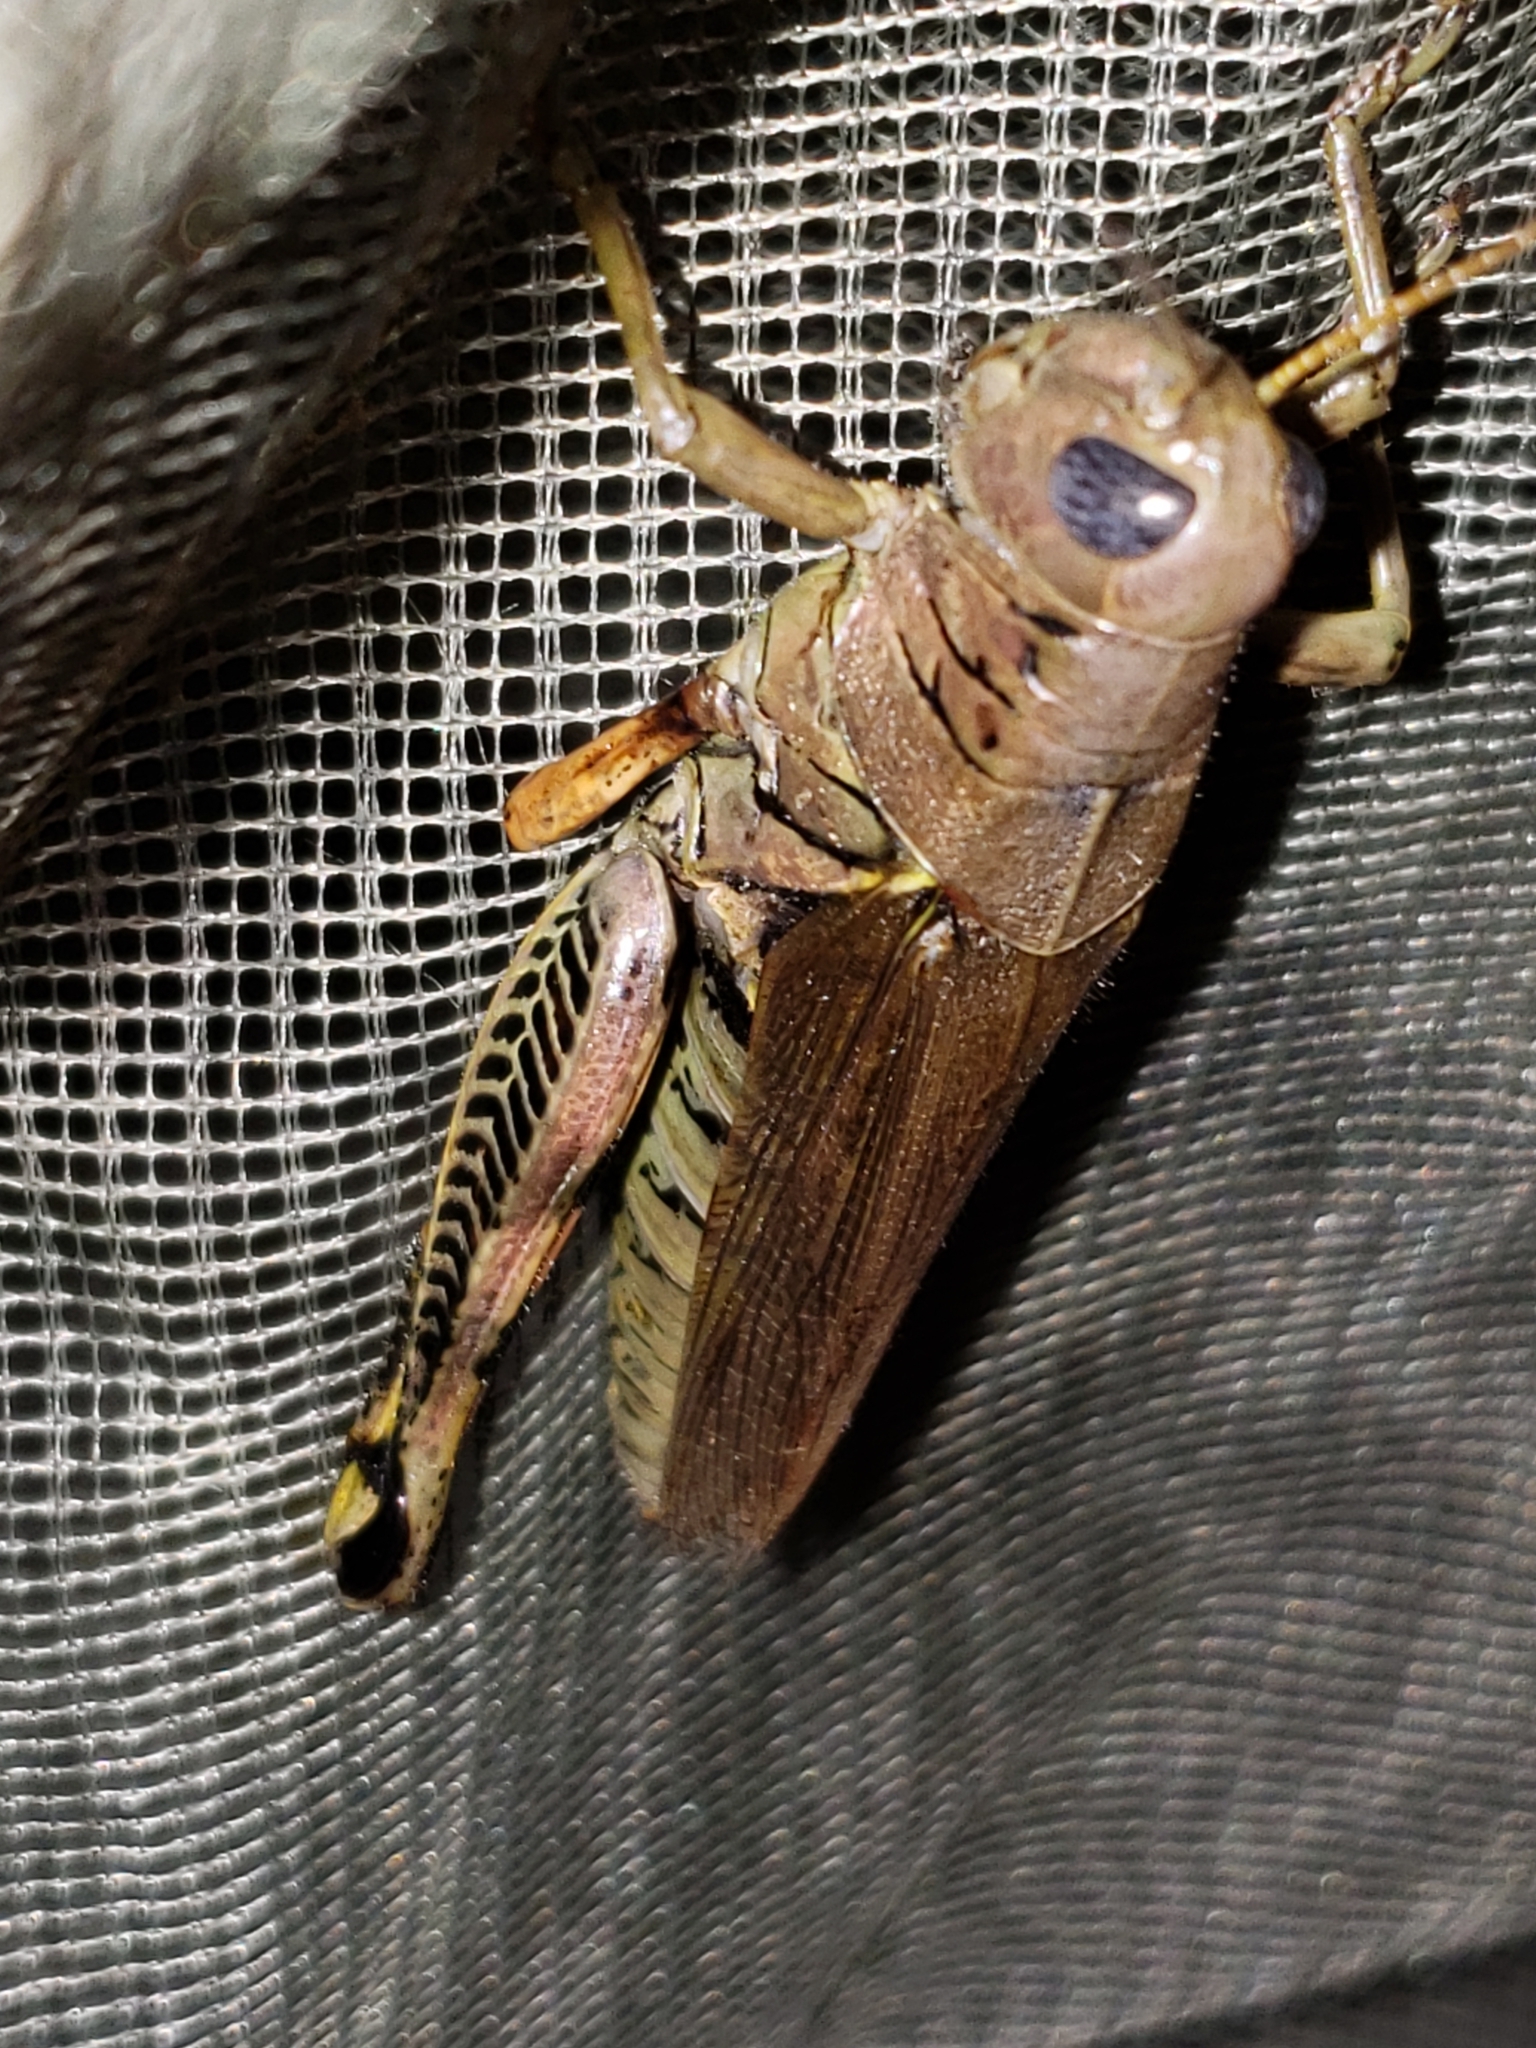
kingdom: Animalia
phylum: Arthropoda
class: Insecta
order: Orthoptera
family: Acrididae
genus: Melanoplus
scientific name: Melanoplus differentialis
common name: Differential grasshopper
